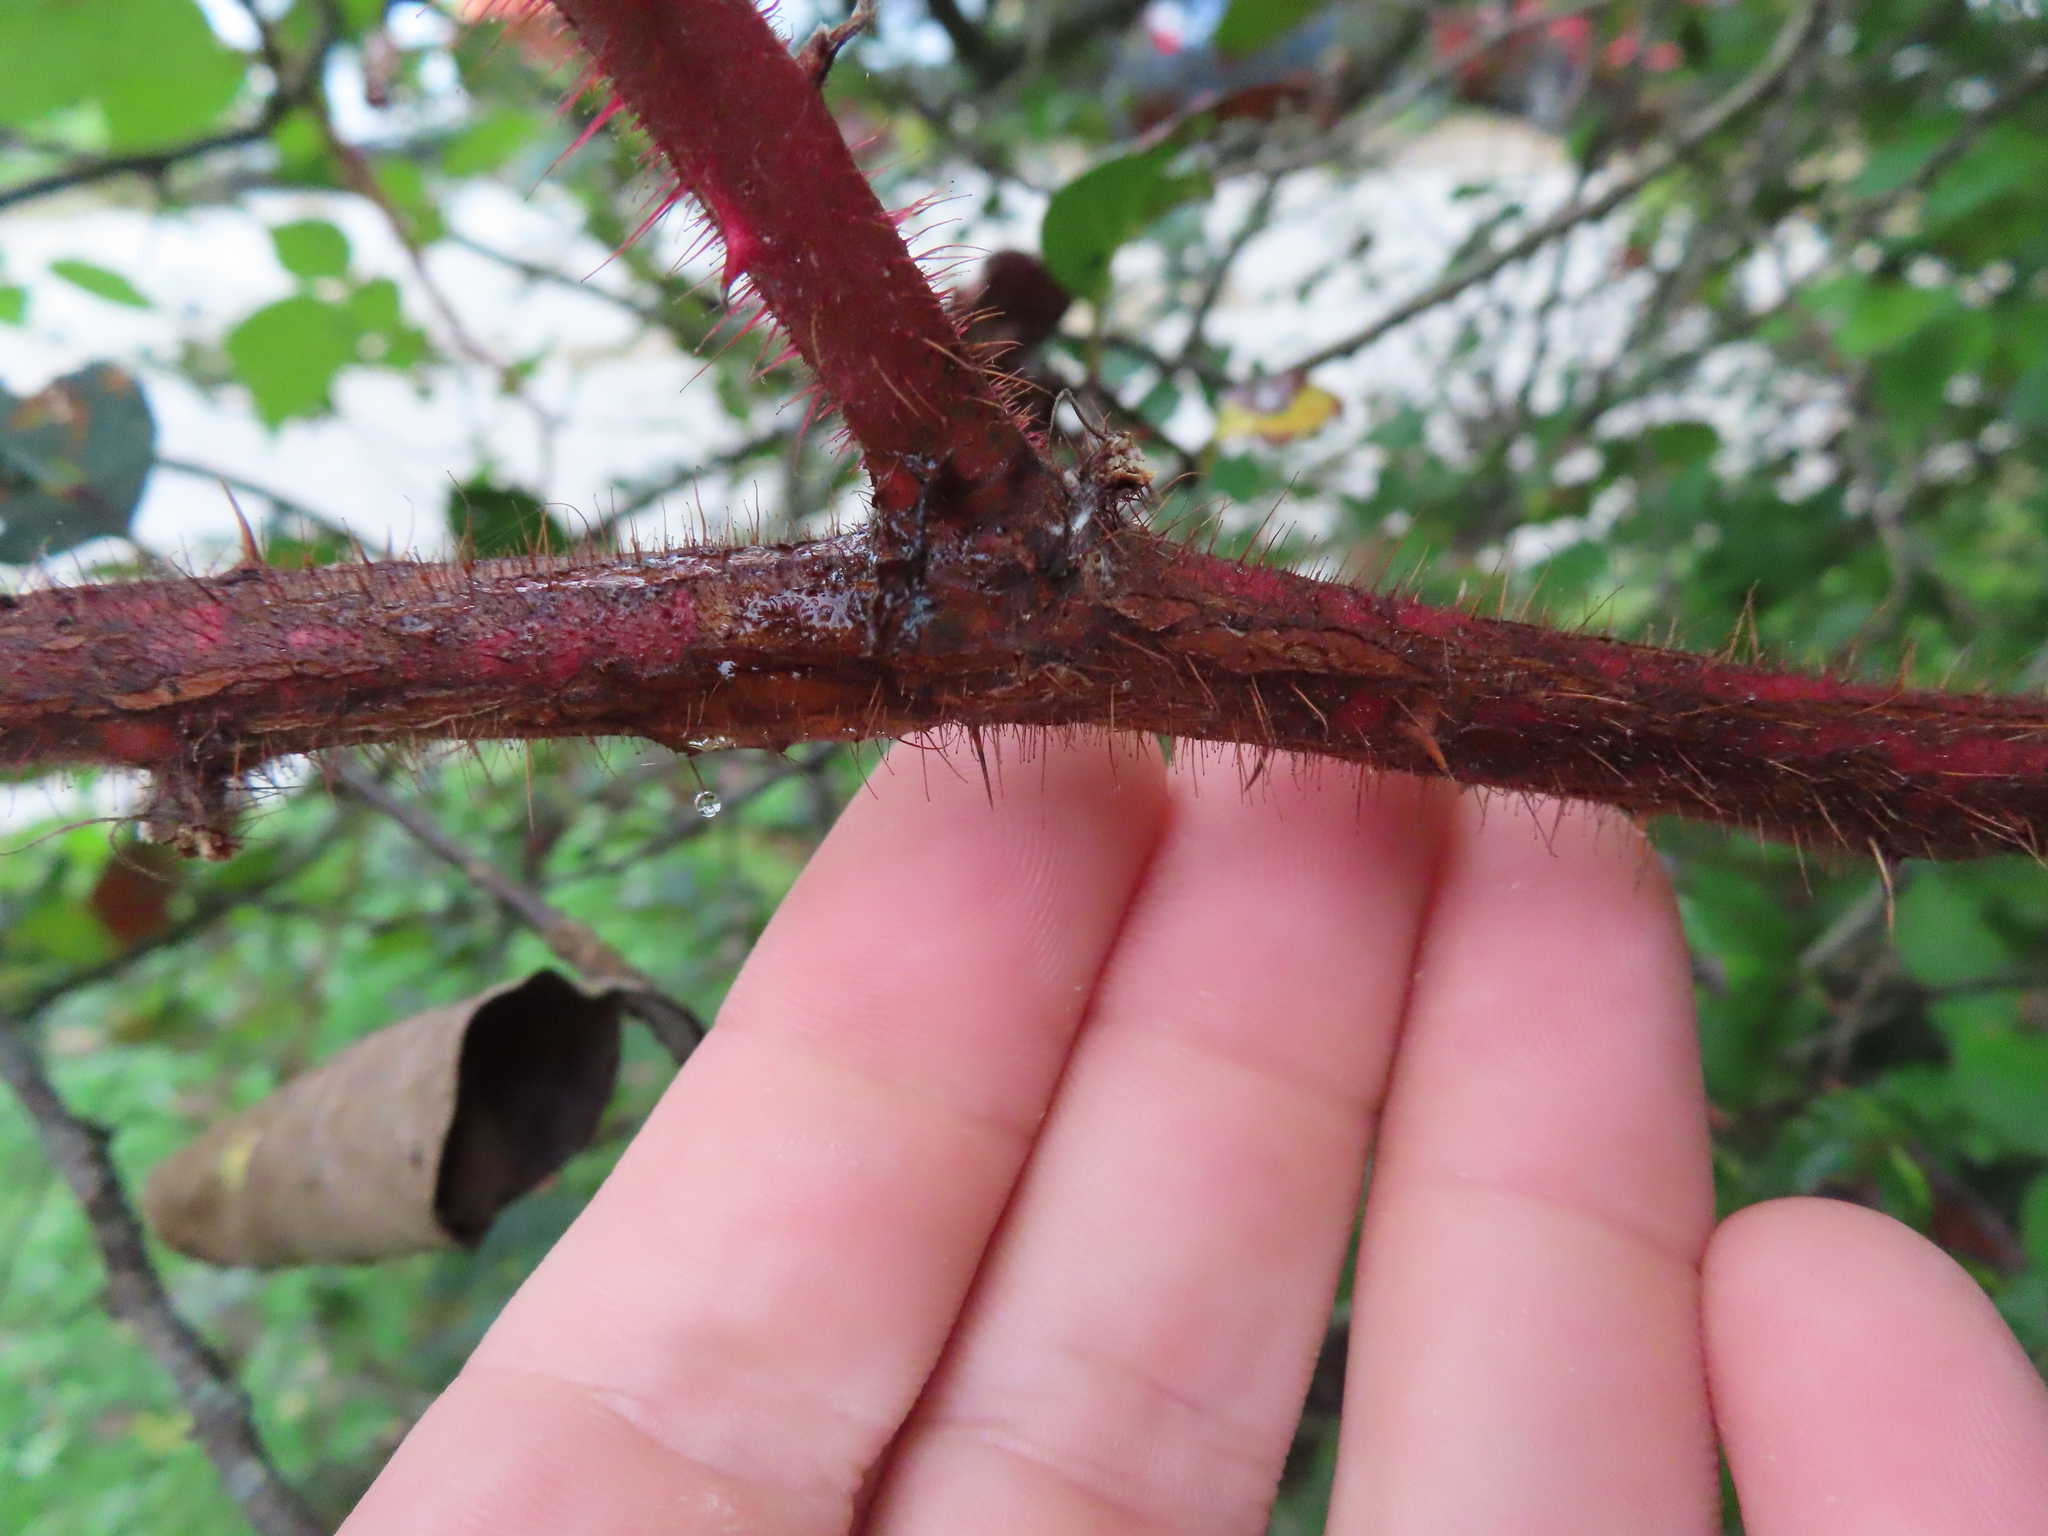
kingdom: Plantae
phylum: Tracheophyta
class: Magnoliopsida
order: Rosales
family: Rosaceae
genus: Rubus
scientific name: Rubus phoenicolasius
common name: Japanese wineberry
